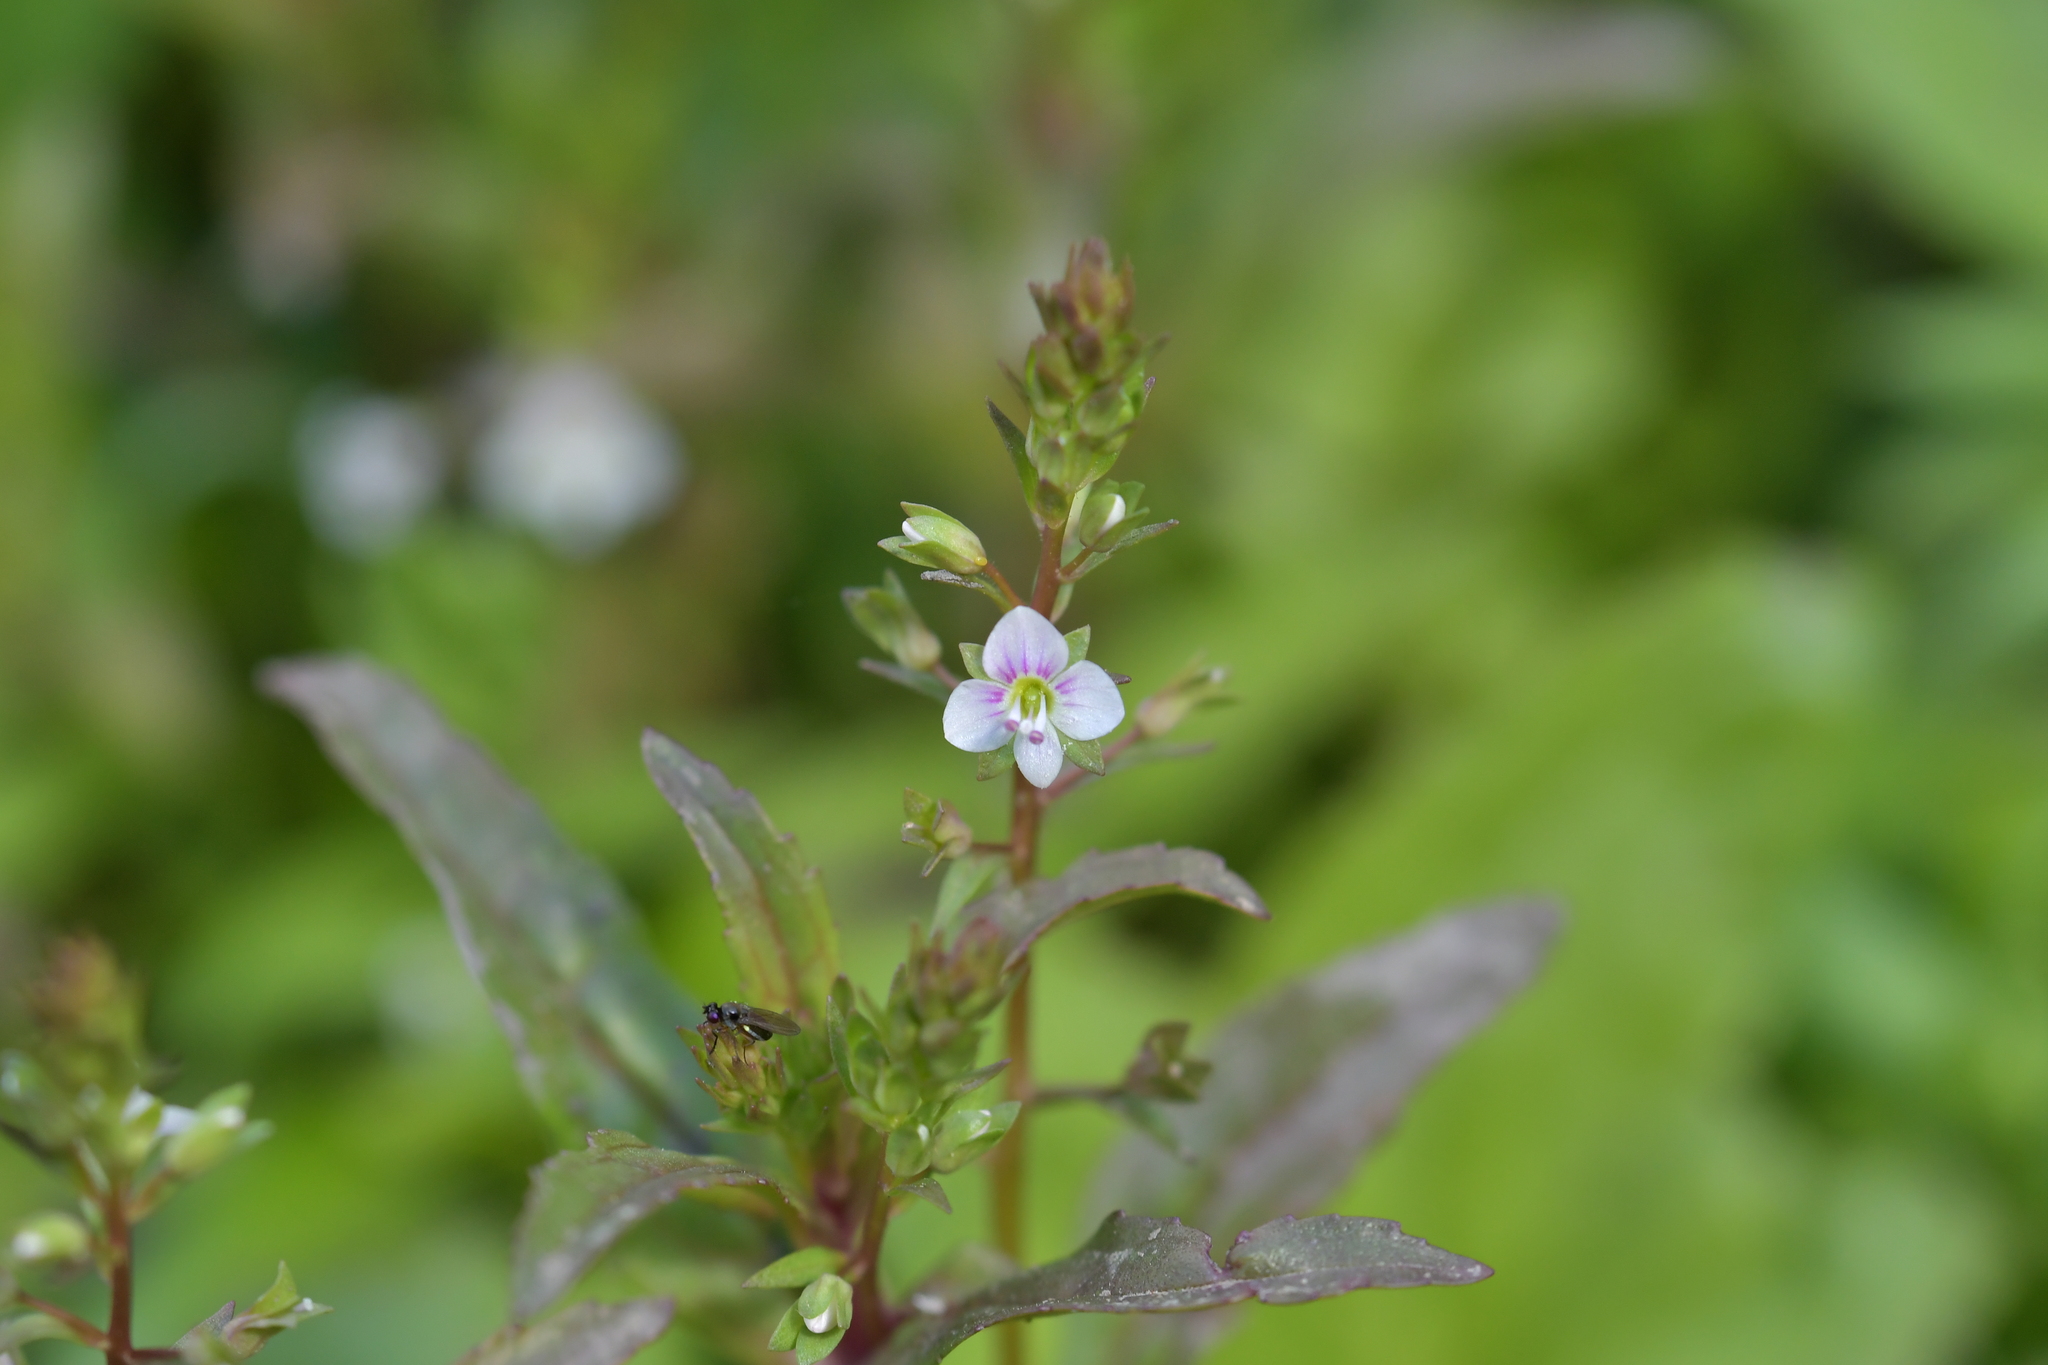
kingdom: Plantae
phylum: Tracheophyta
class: Magnoliopsida
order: Lamiales
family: Plantaginaceae
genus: Veronica
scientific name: Veronica catenata
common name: Pink water-speedwell
